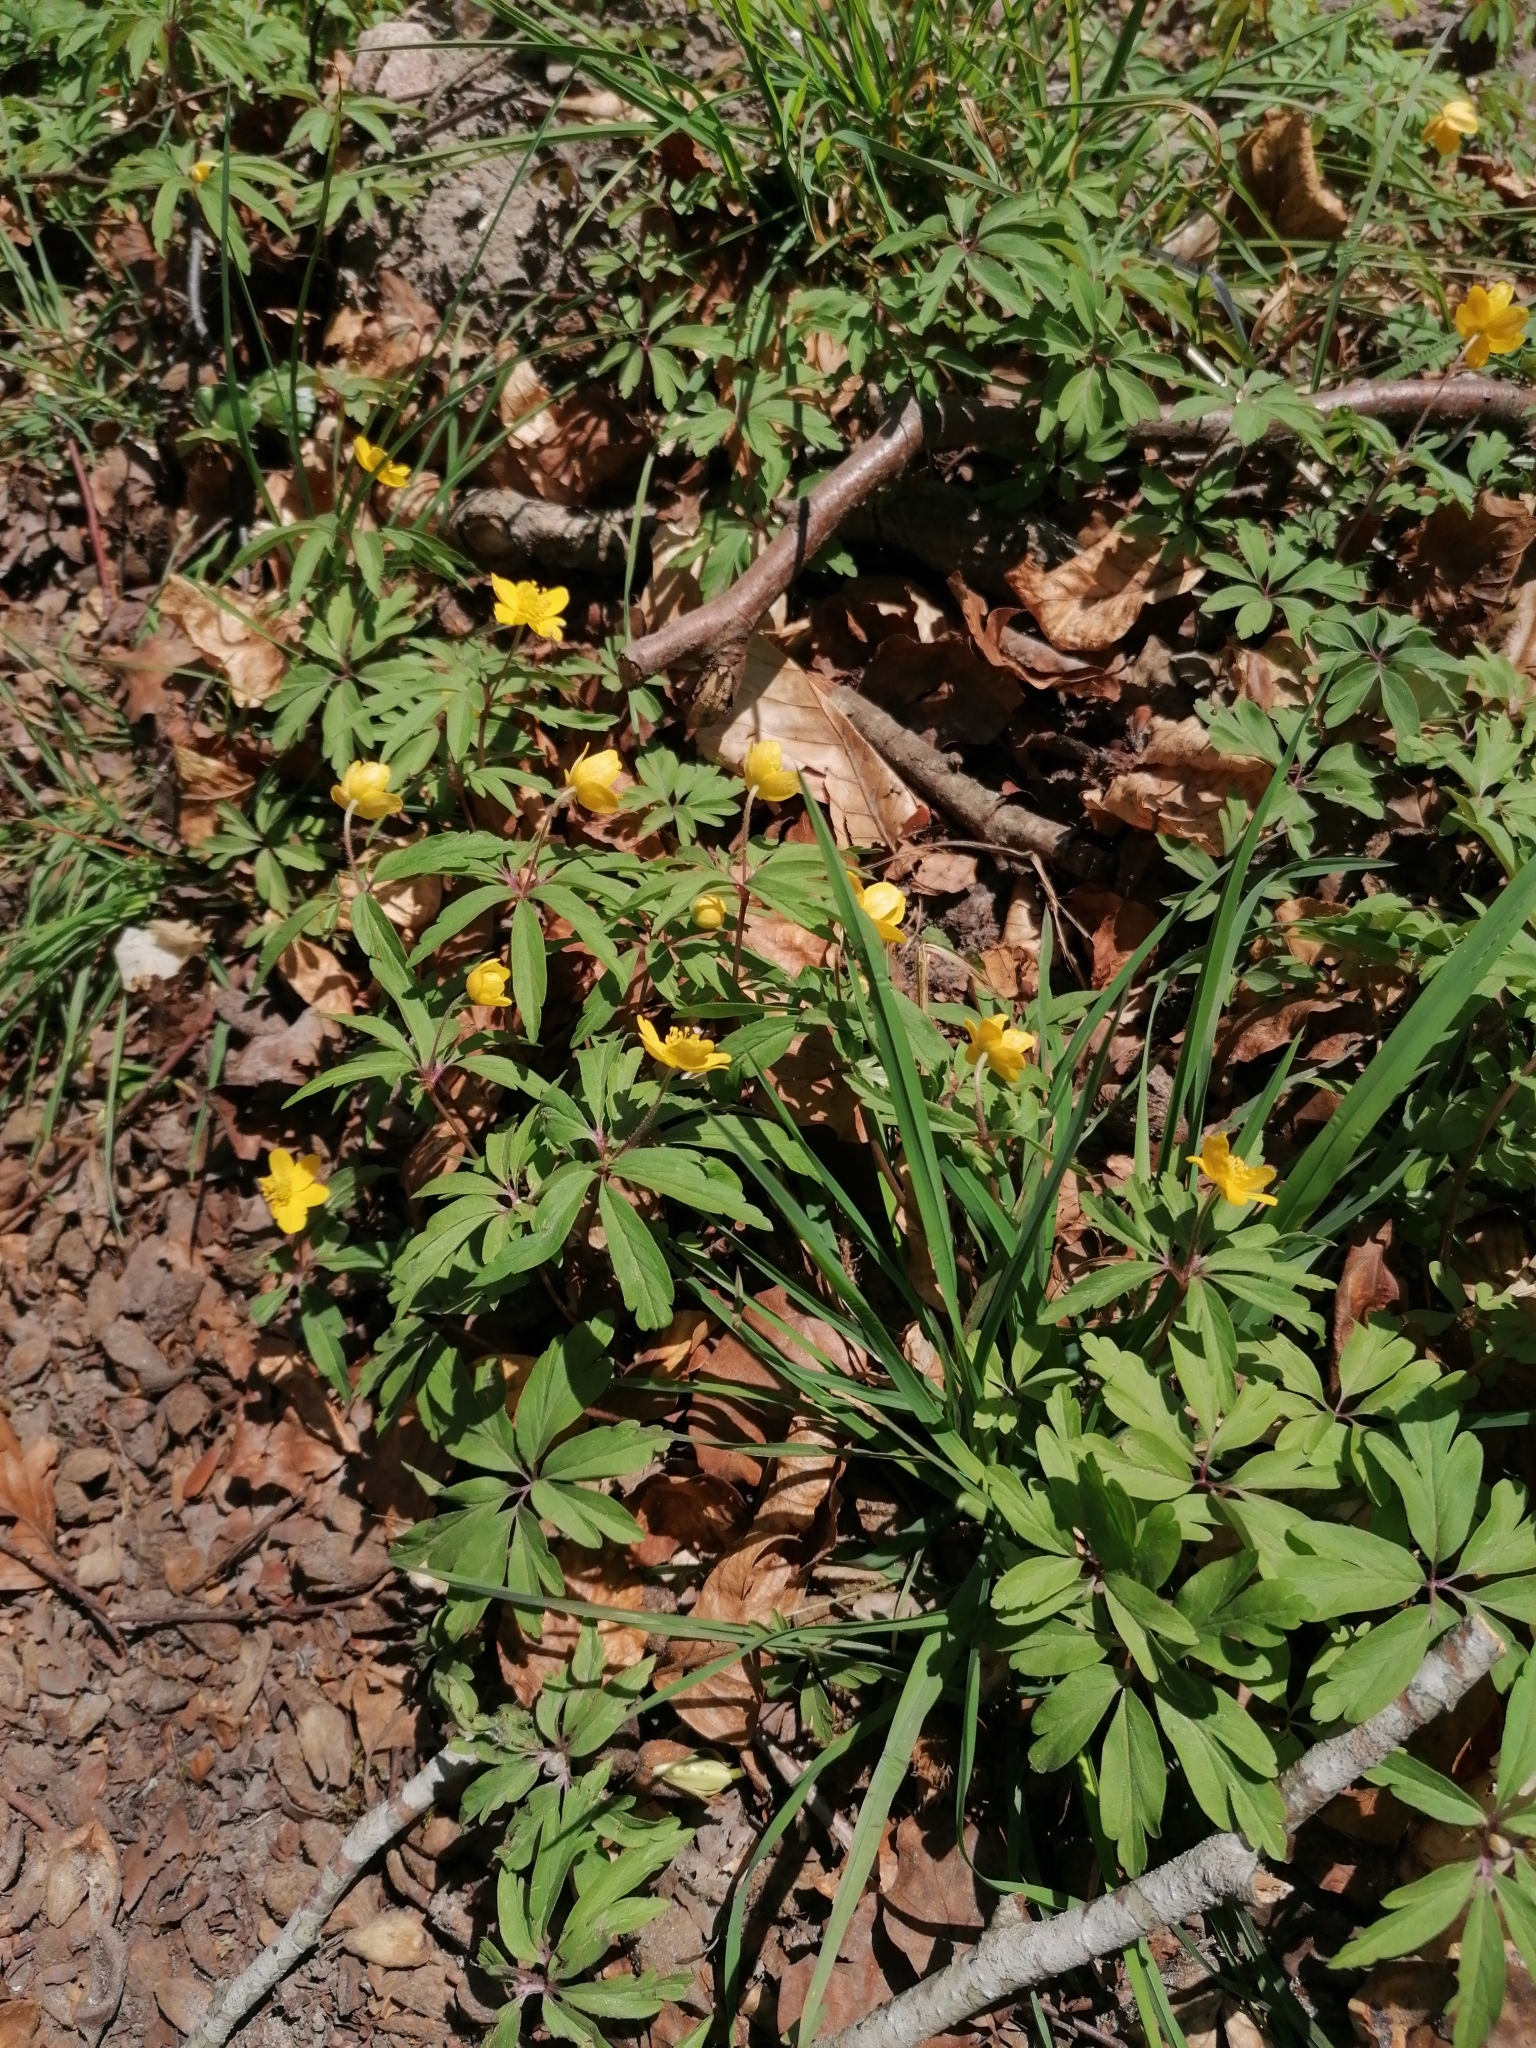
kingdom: Plantae
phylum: Tracheophyta
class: Magnoliopsida
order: Ranunculales
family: Ranunculaceae
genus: Anemone
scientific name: Anemone ranunculoides
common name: Yellow anemone
